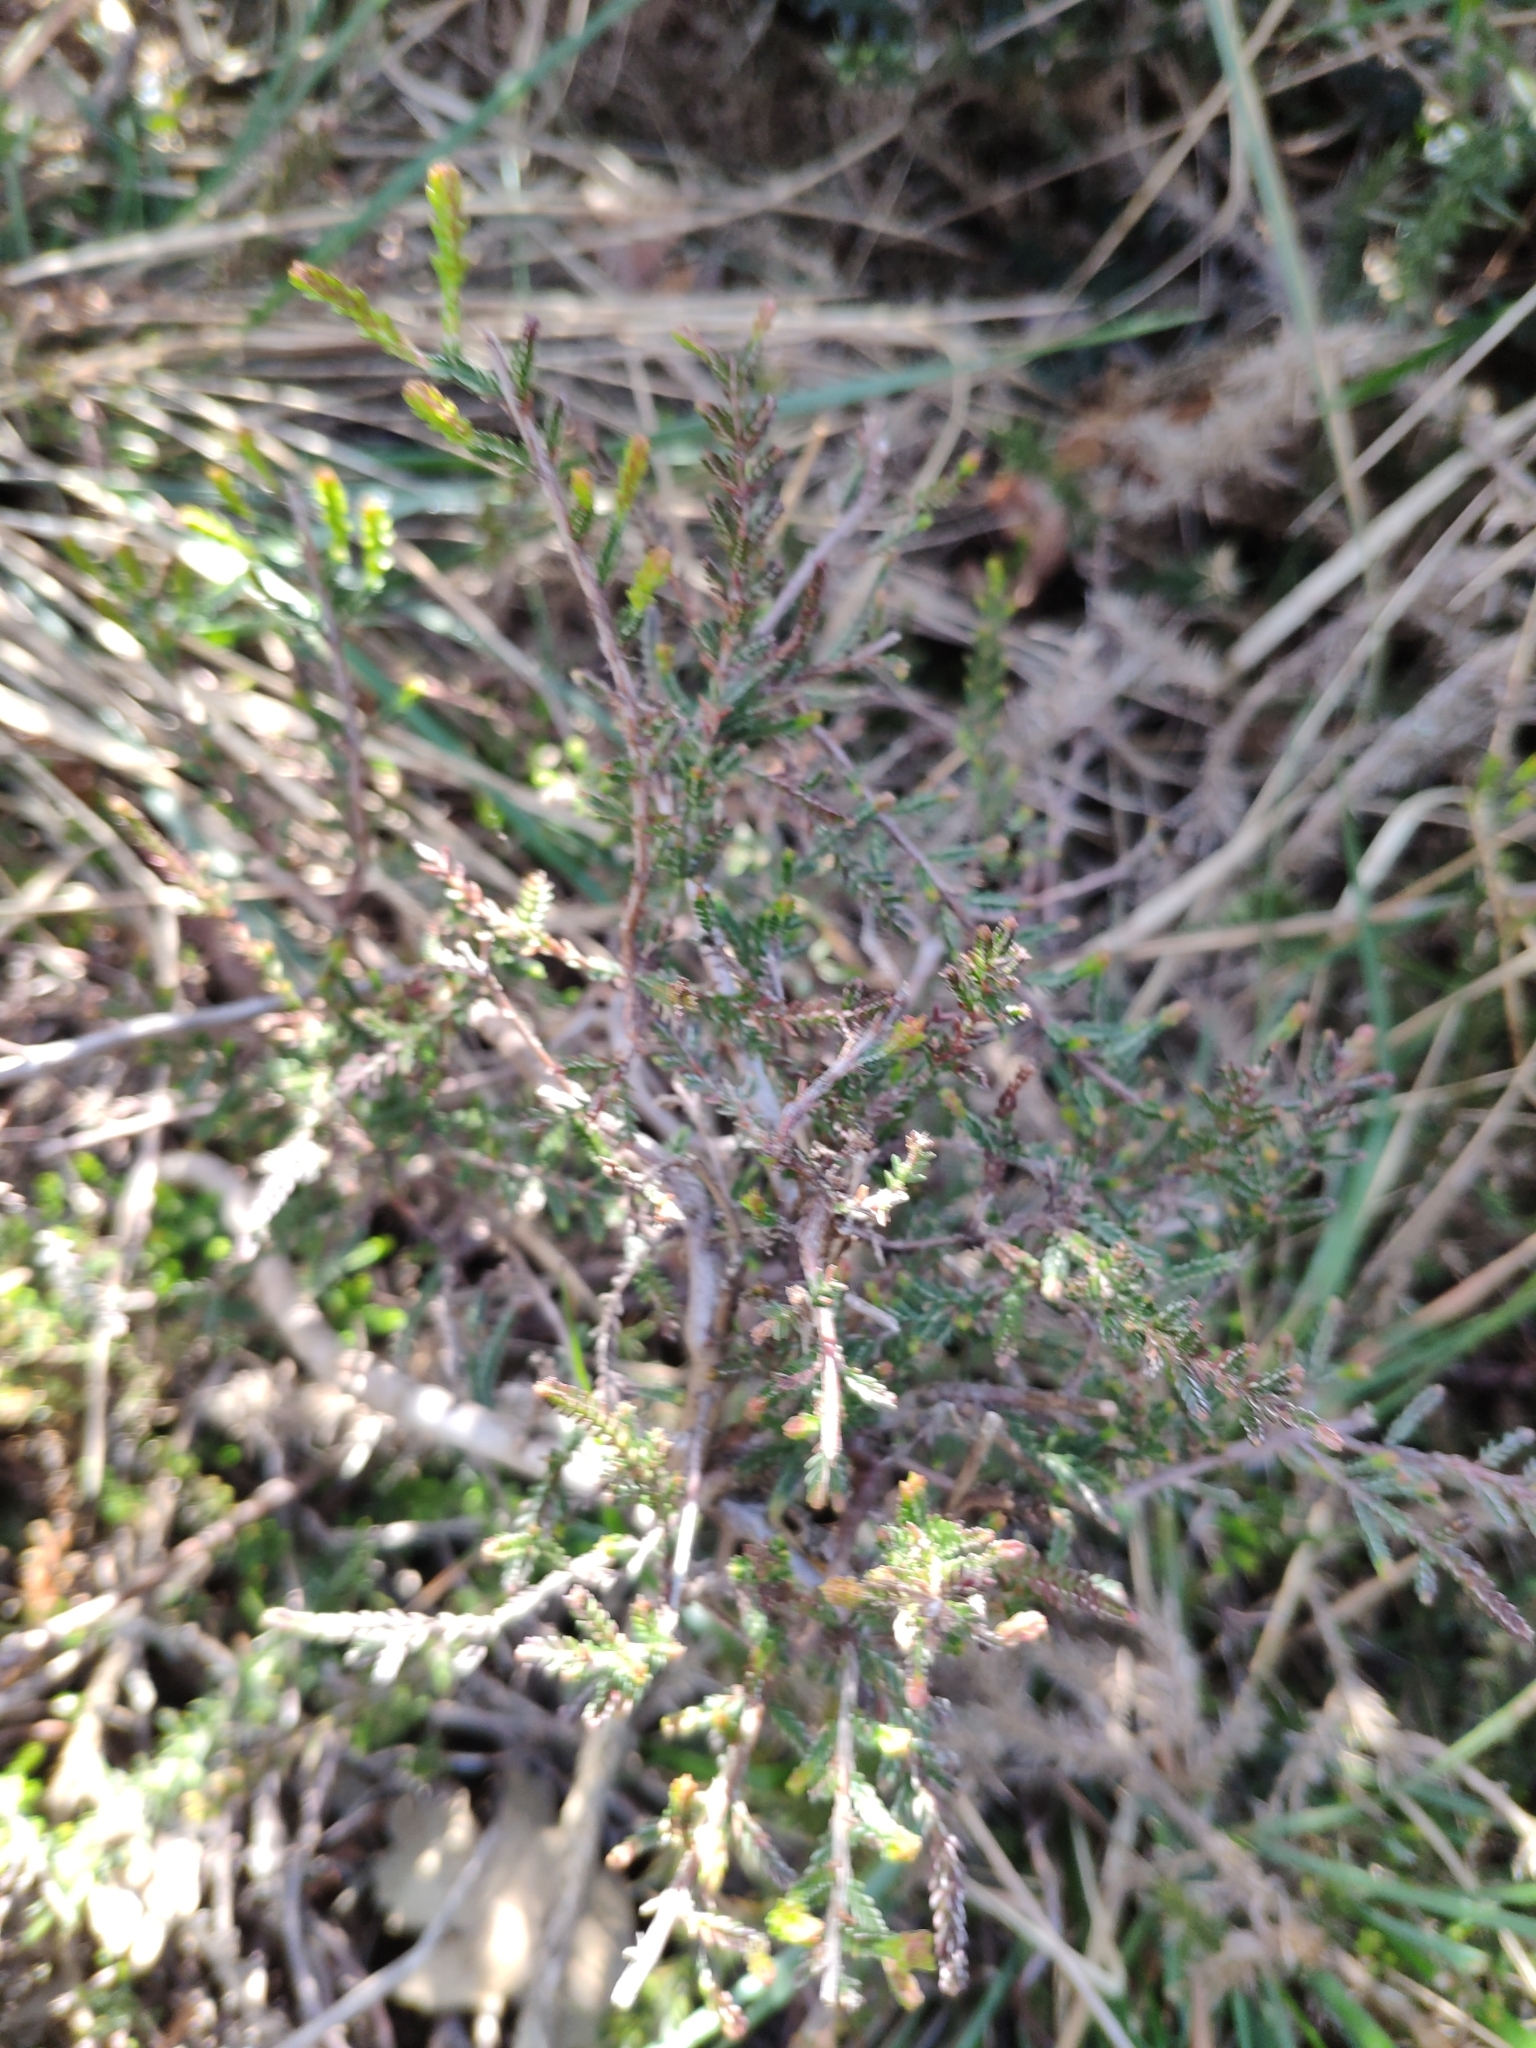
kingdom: Plantae
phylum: Tracheophyta
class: Magnoliopsida
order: Ericales
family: Ericaceae
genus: Calluna
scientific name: Calluna vulgaris
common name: Heather
